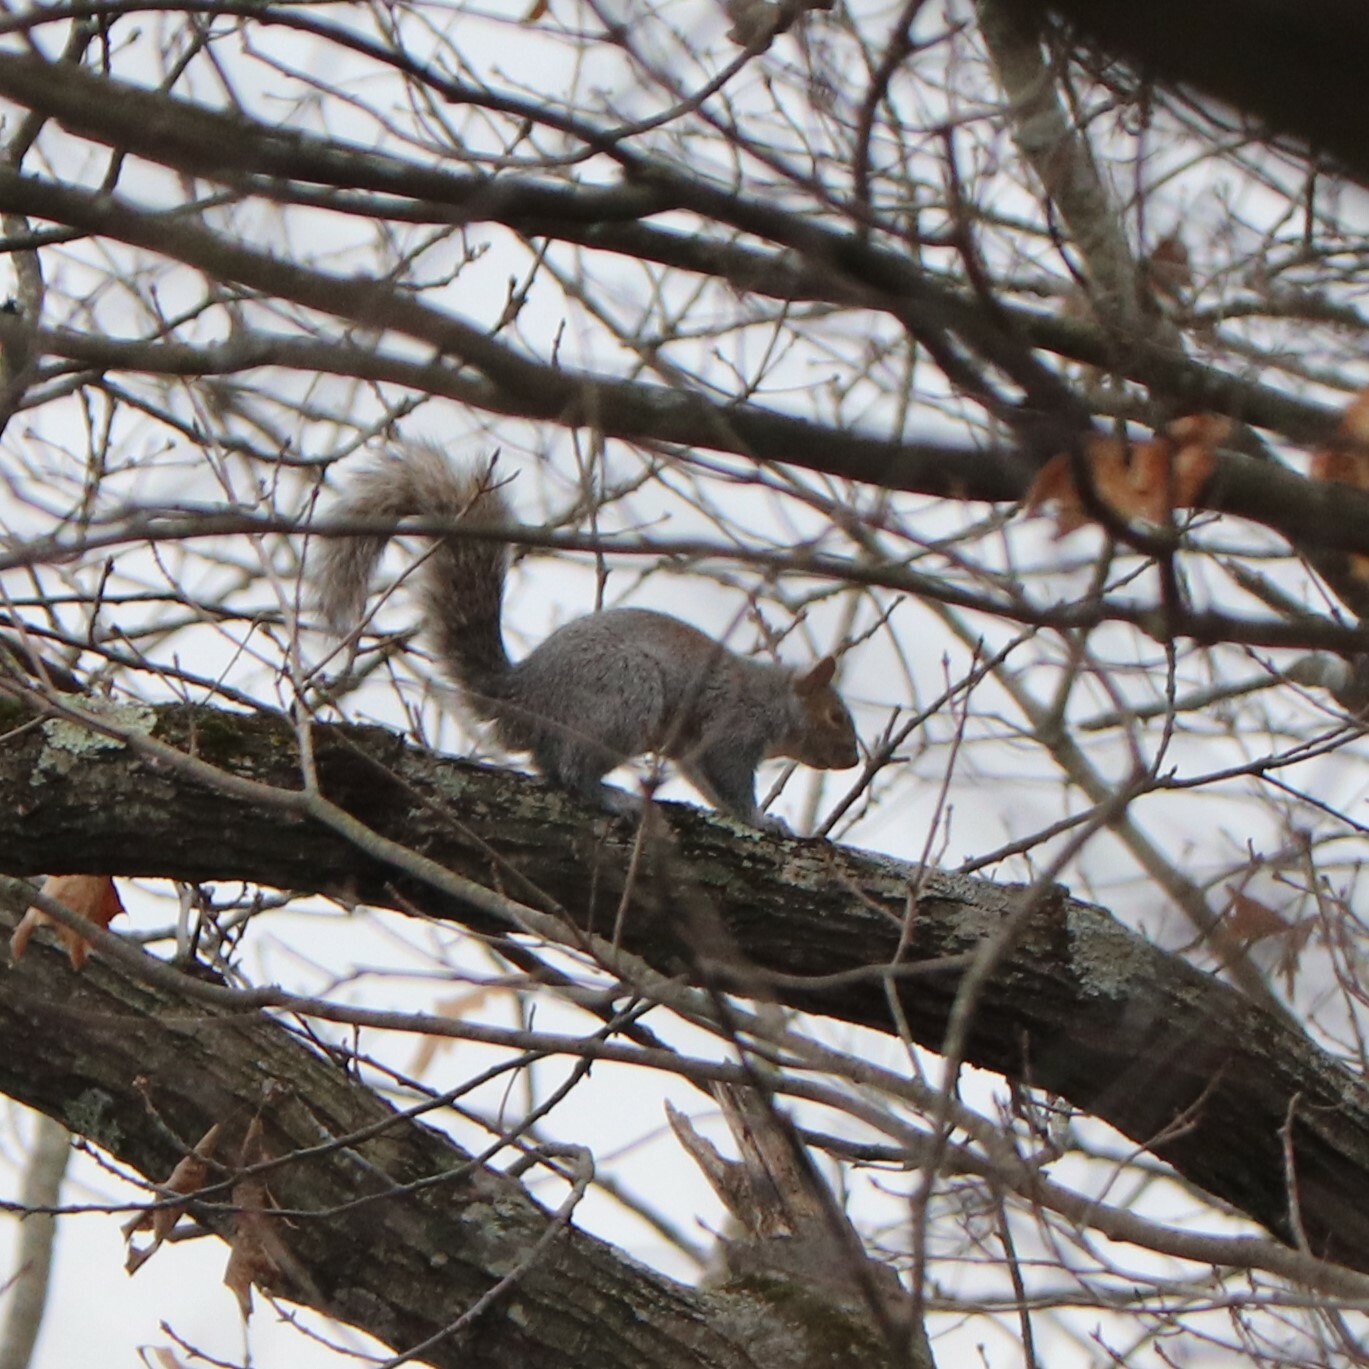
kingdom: Animalia
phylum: Chordata
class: Mammalia
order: Rodentia
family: Sciuridae
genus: Sciurus
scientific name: Sciurus carolinensis
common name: Eastern gray squirrel
